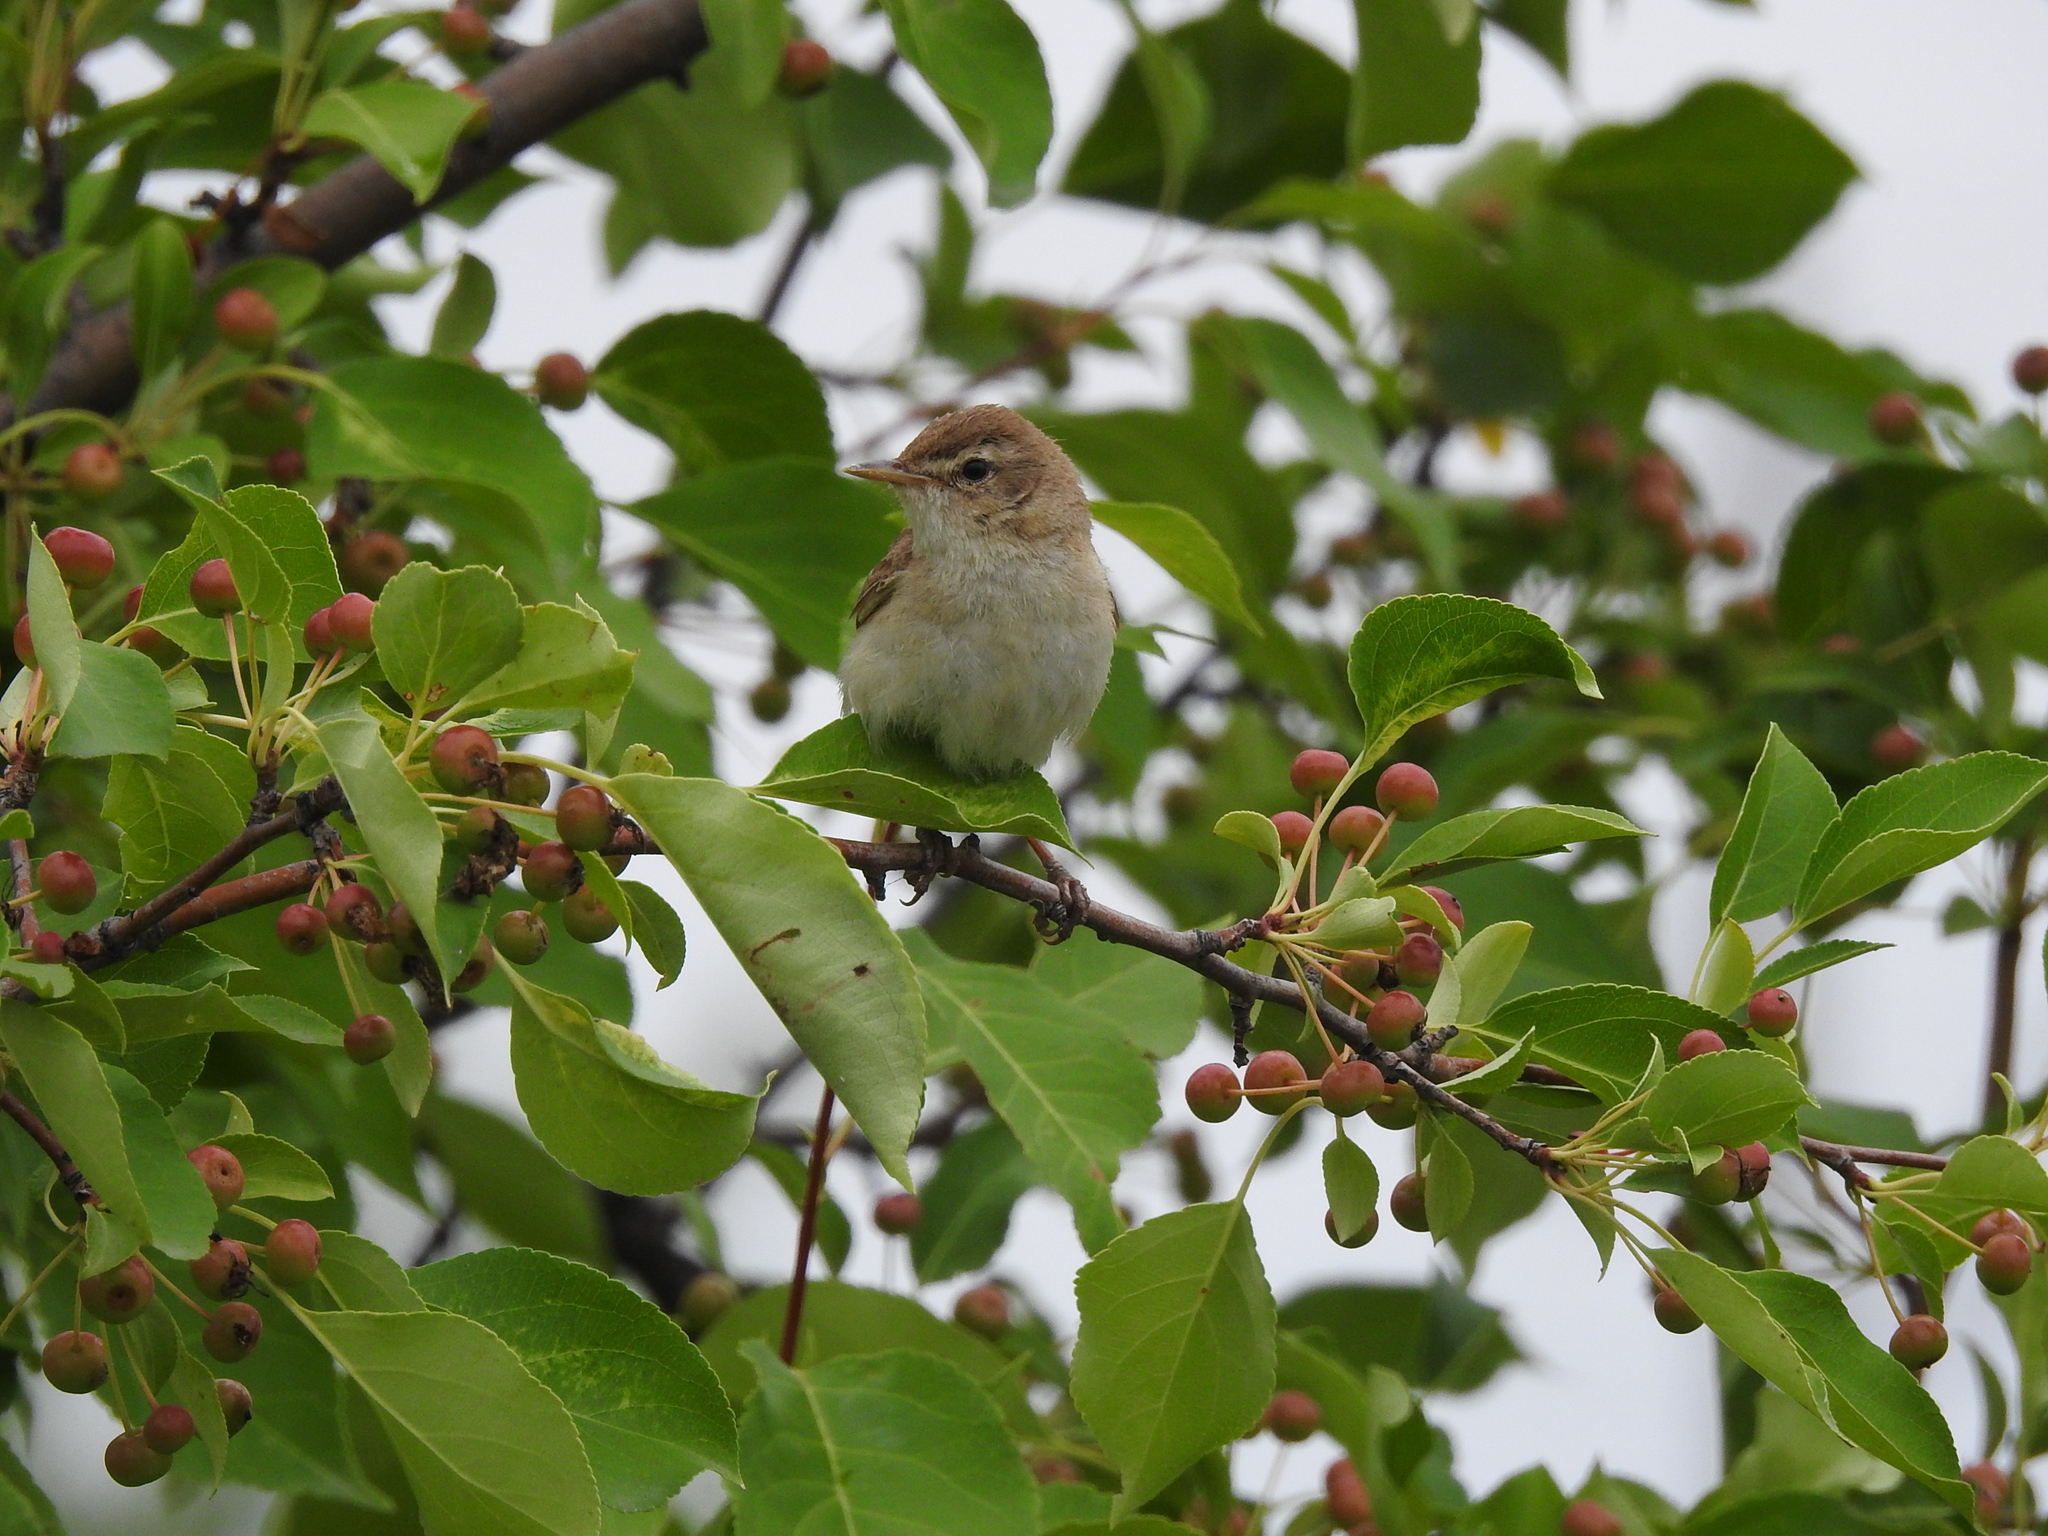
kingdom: Animalia
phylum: Chordata
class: Aves
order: Passeriformes
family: Acrocephalidae
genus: Iduna
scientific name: Iduna caligata
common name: Booted warbler
